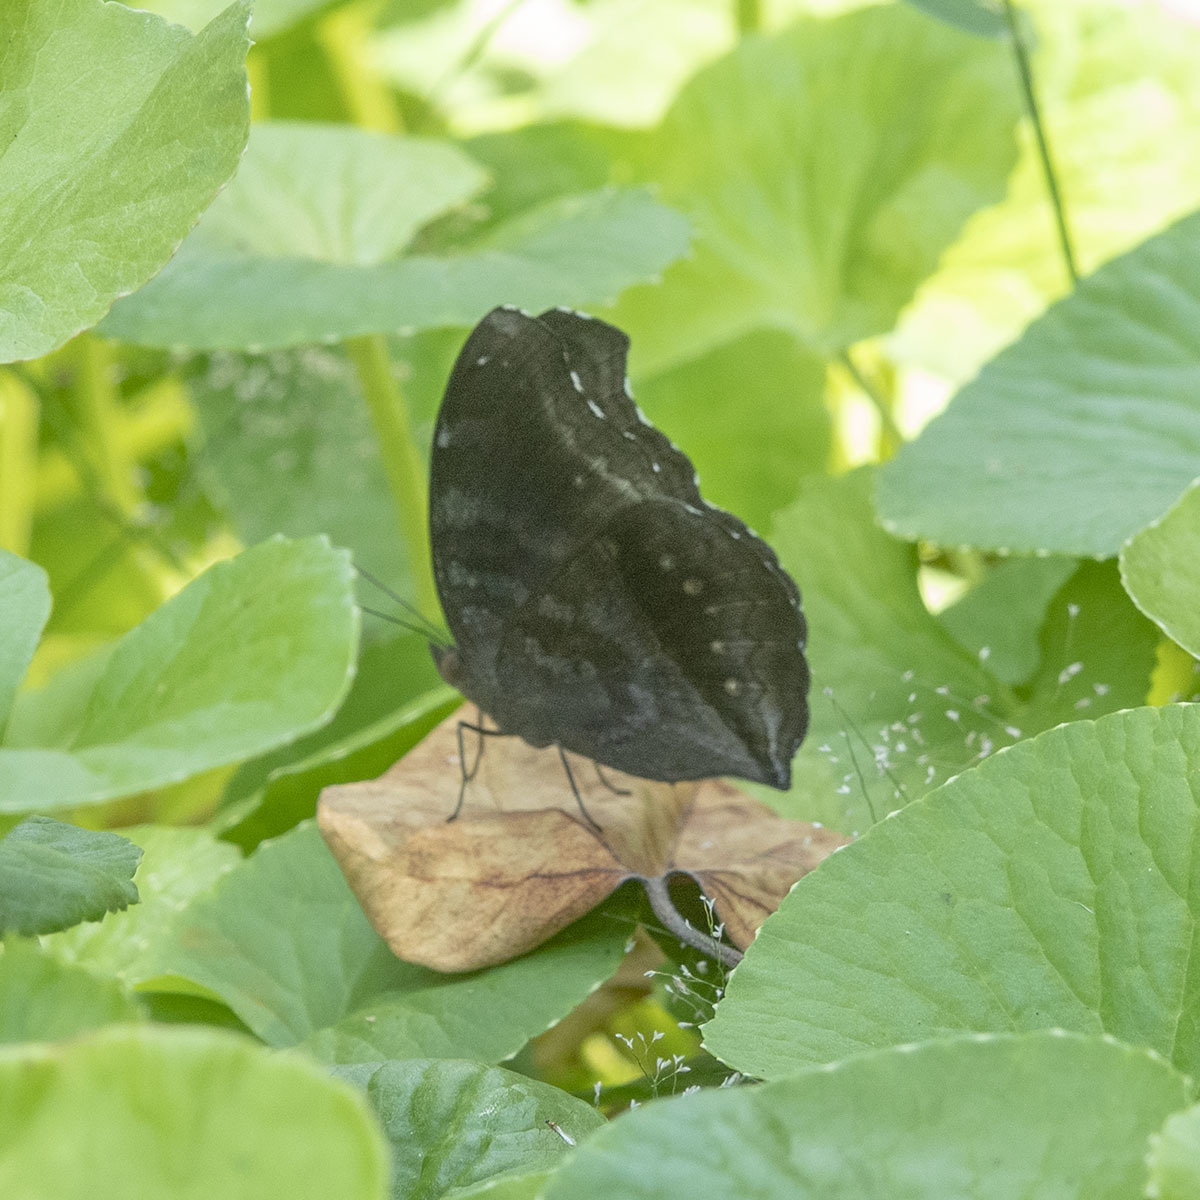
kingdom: Animalia
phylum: Arthropoda
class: Insecta
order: Lepidoptera
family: Nymphalidae
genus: Junonia
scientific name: Junonia iphita
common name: Chocolate pansy
